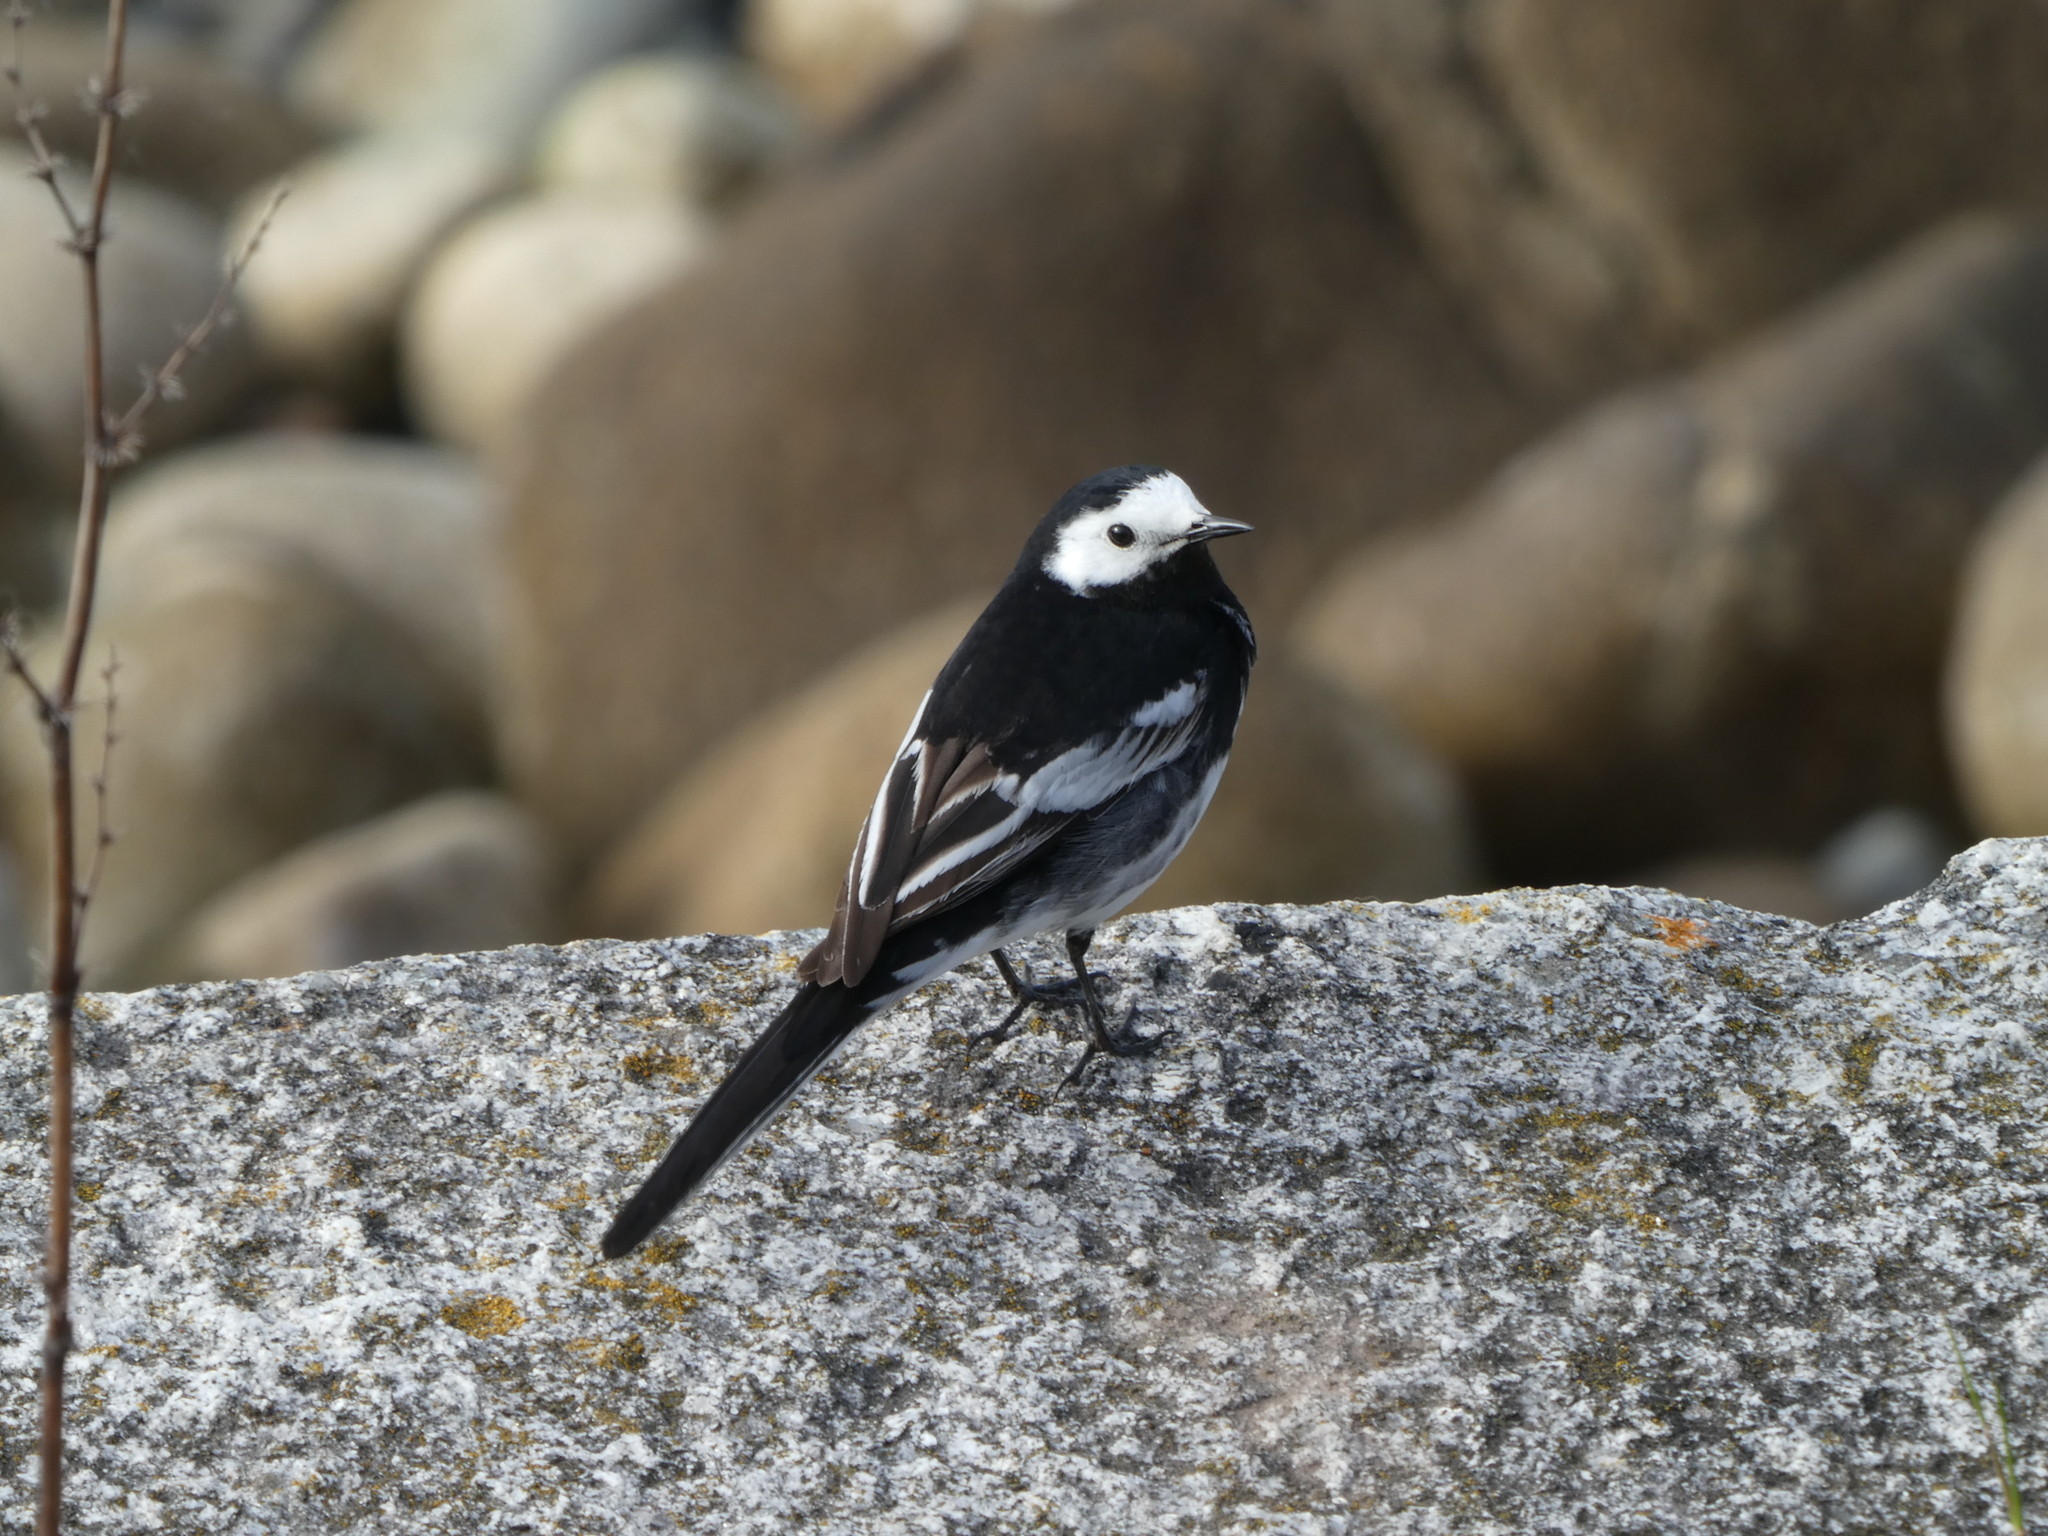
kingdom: Animalia
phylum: Chordata
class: Aves
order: Passeriformes
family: Motacillidae
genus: Motacilla
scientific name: Motacilla alba
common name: White wagtail
